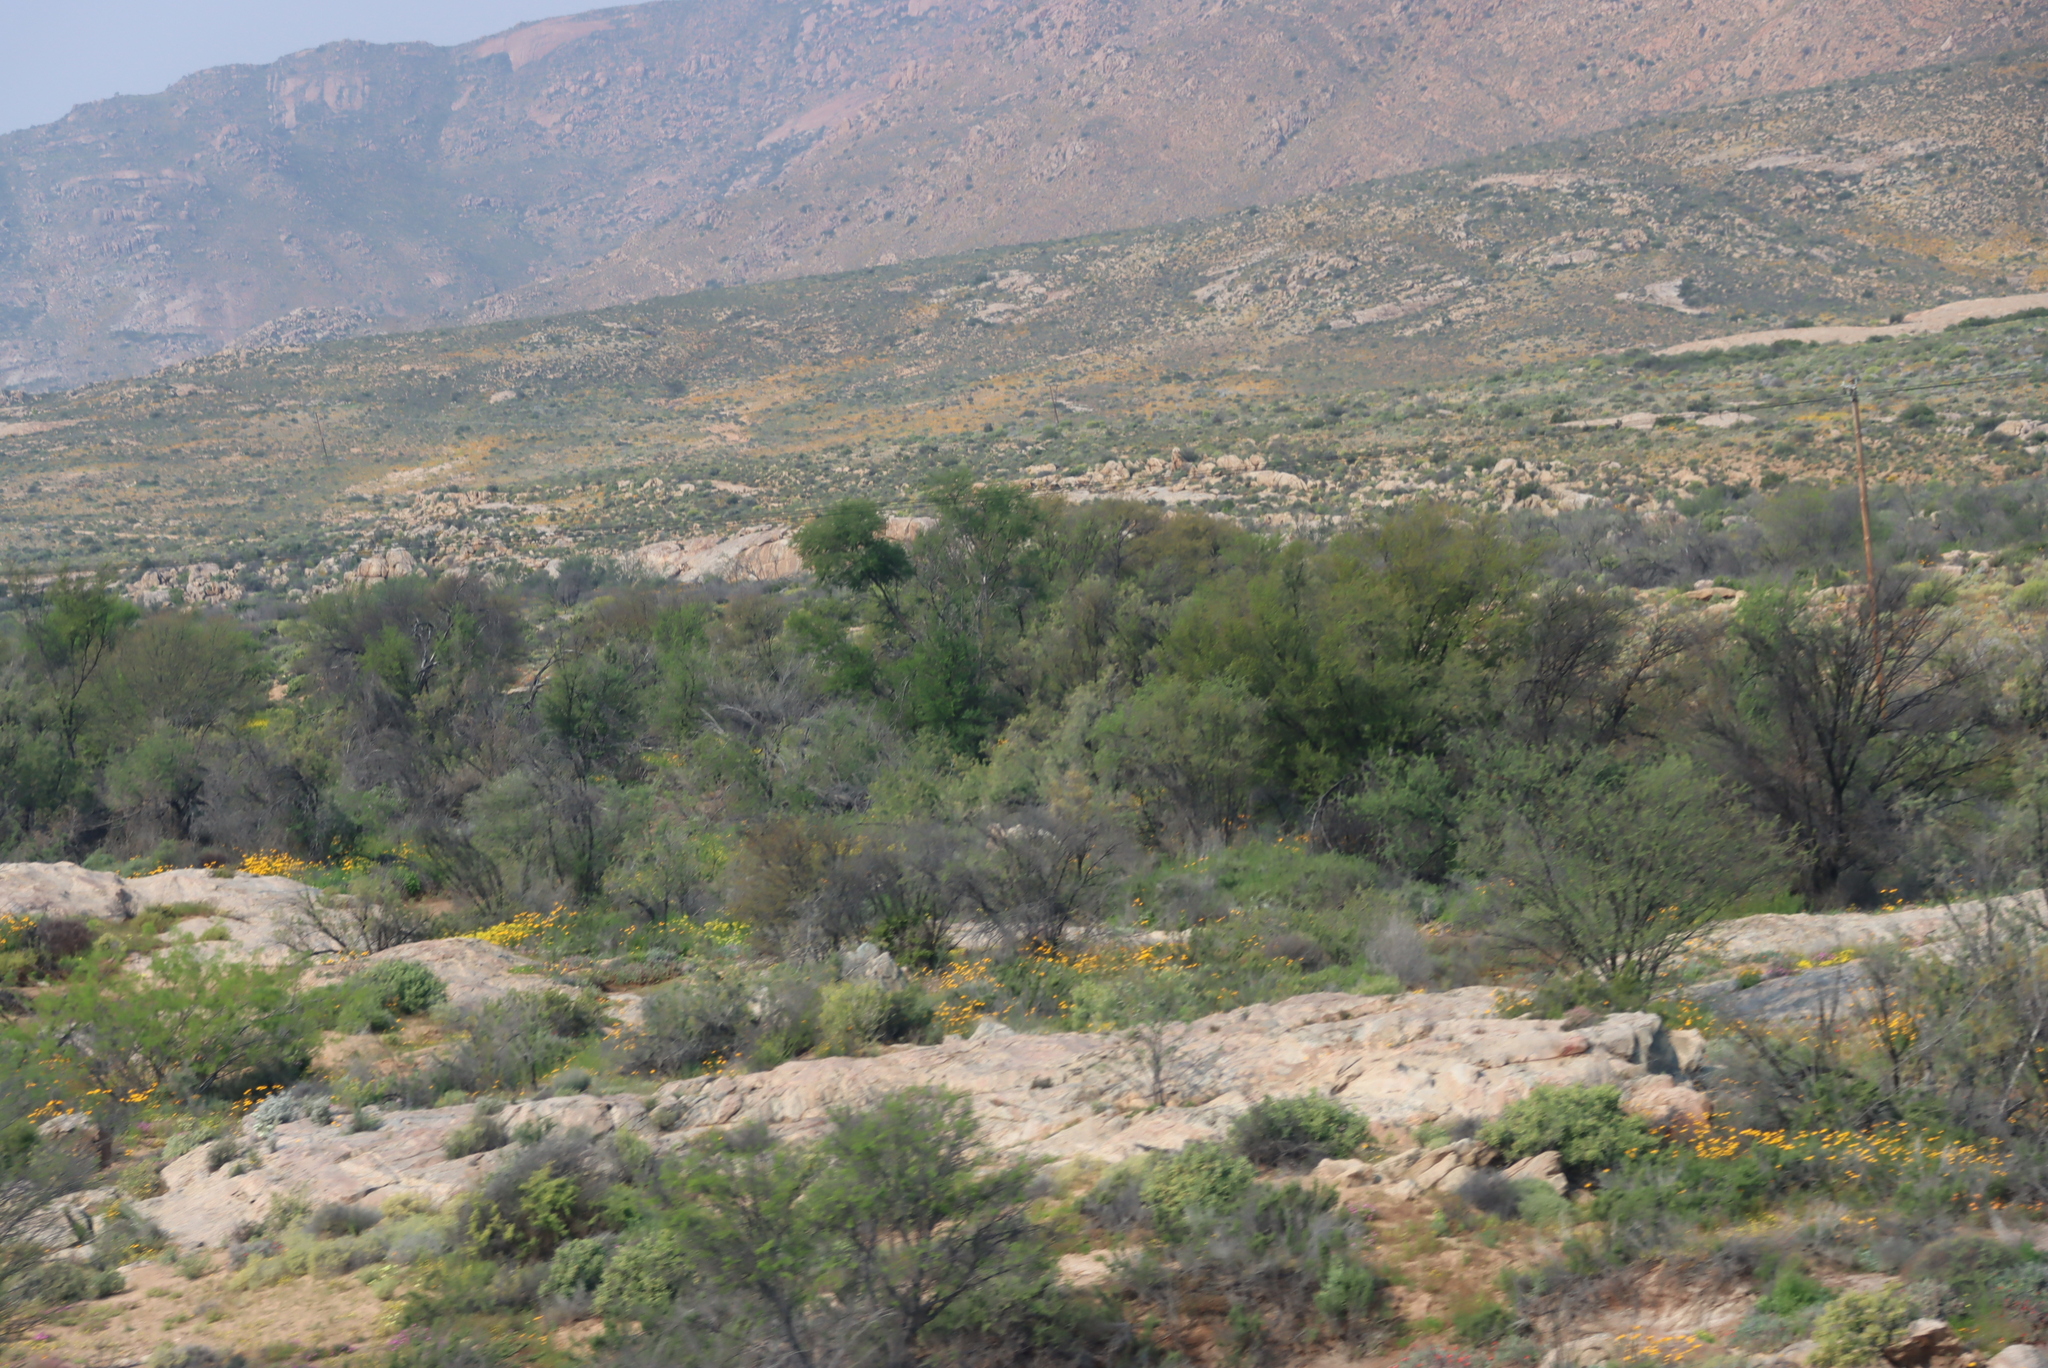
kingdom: Plantae
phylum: Tracheophyta
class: Magnoliopsida
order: Fabales
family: Fabaceae
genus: Vachellia
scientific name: Vachellia karroo
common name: Sweet thorn
